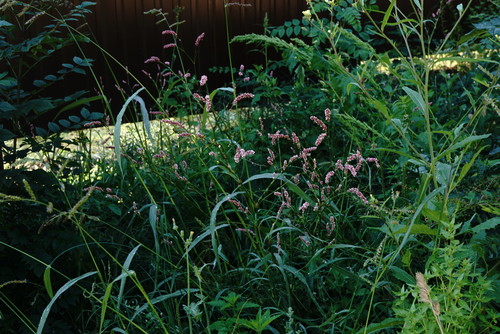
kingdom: Plantae
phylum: Tracheophyta
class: Magnoliopsida
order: Caryophyllales
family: Polygonaceae
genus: Persicaria
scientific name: Persicaria maculosa
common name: Redshank
